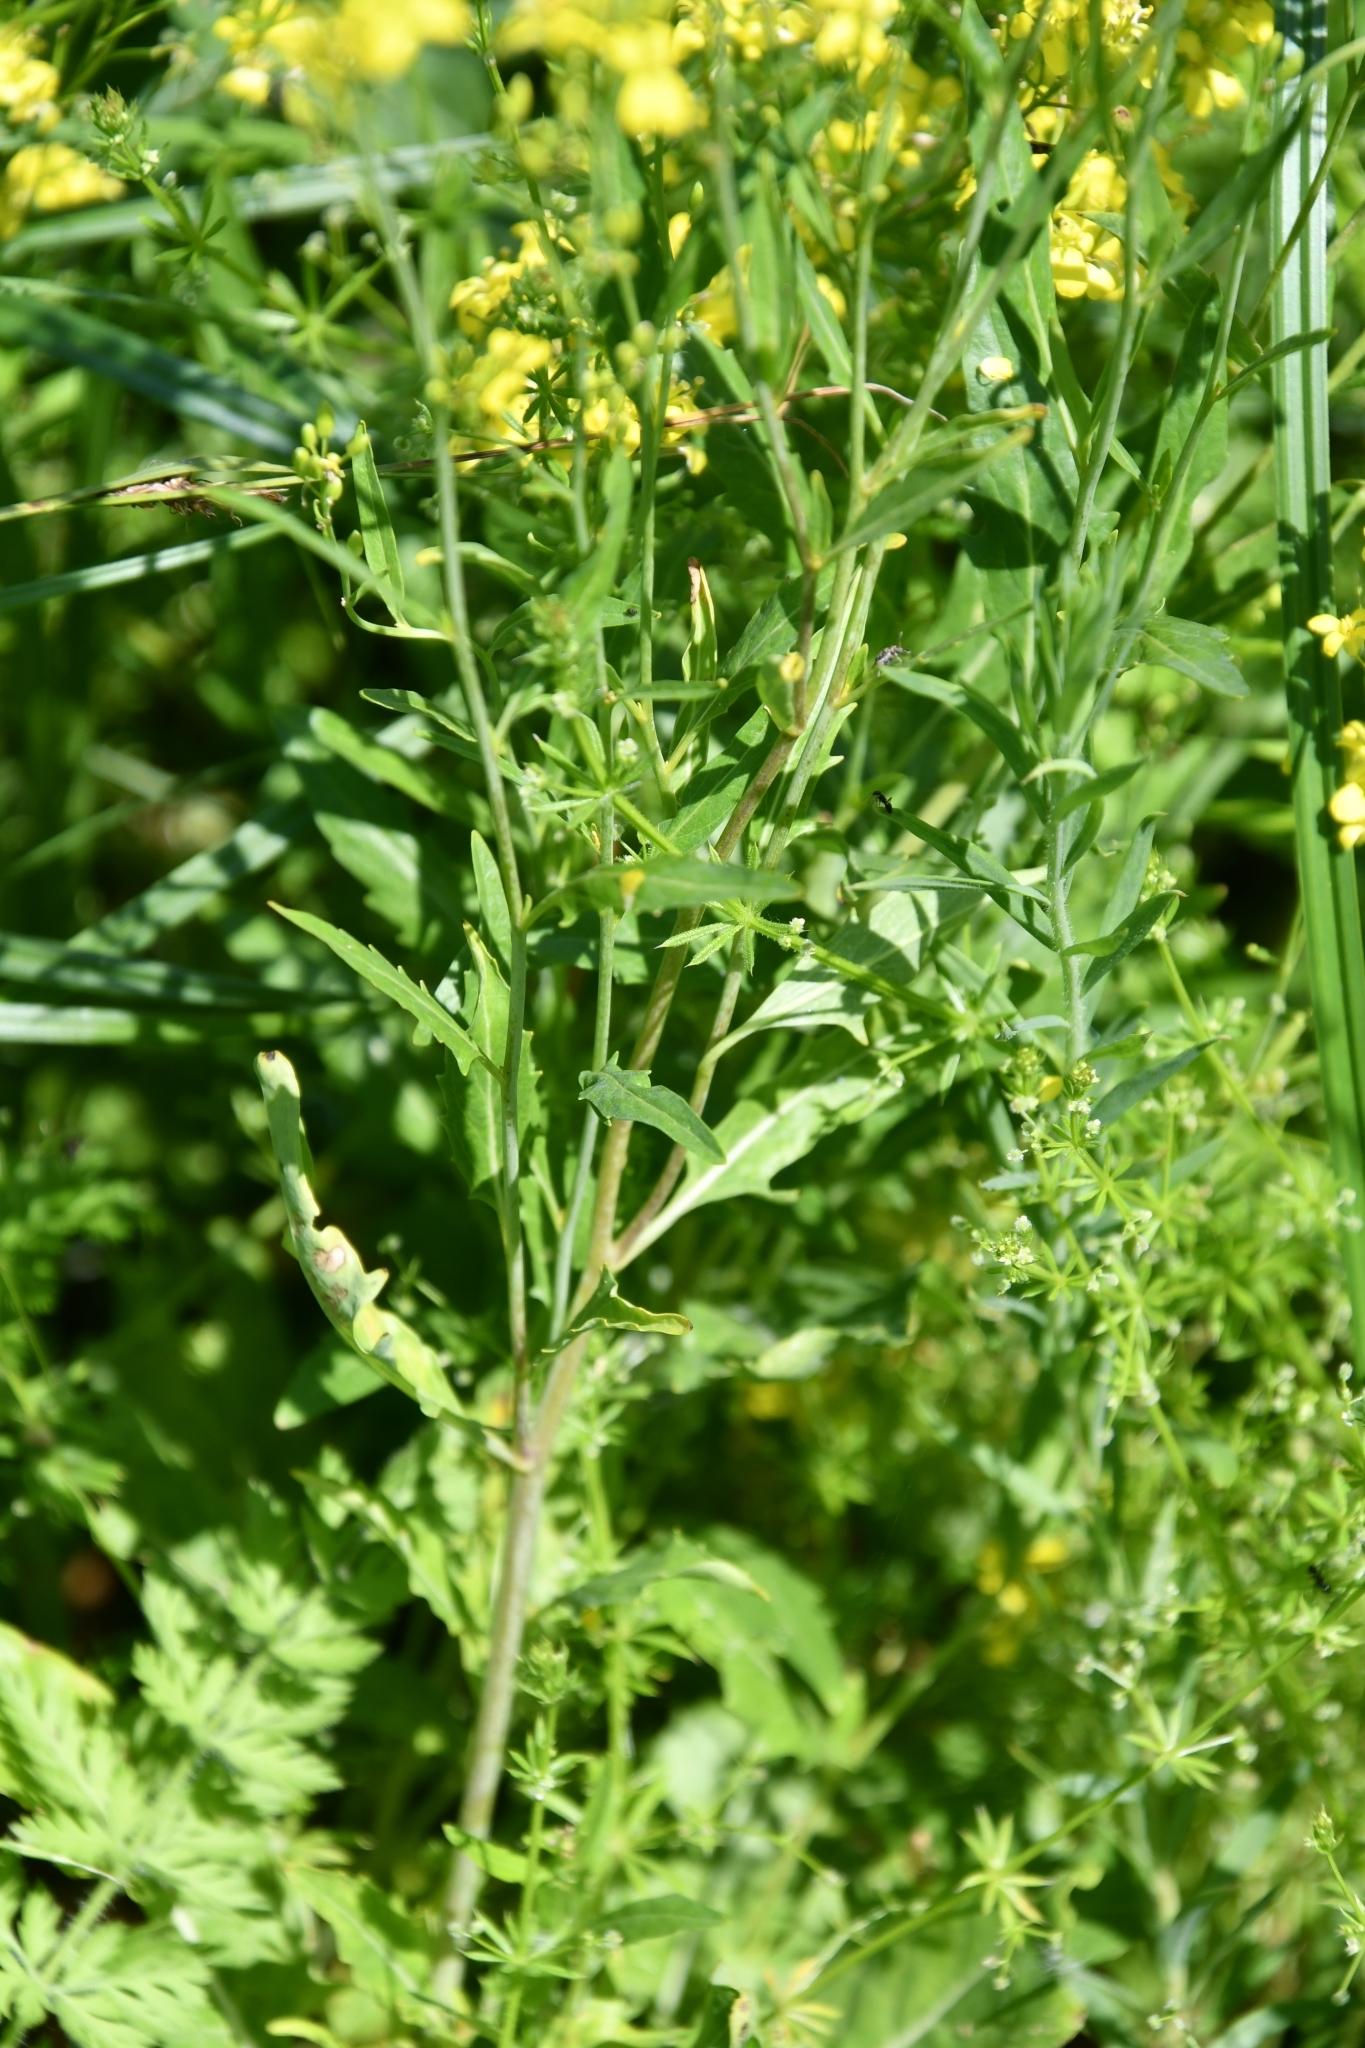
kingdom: Plantae
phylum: Tracheophyta
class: Magnoliopsida
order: Brassicales
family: Brassicaceae
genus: Sisymbrium
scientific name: Sisymbrium volgense
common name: Russian mustard
